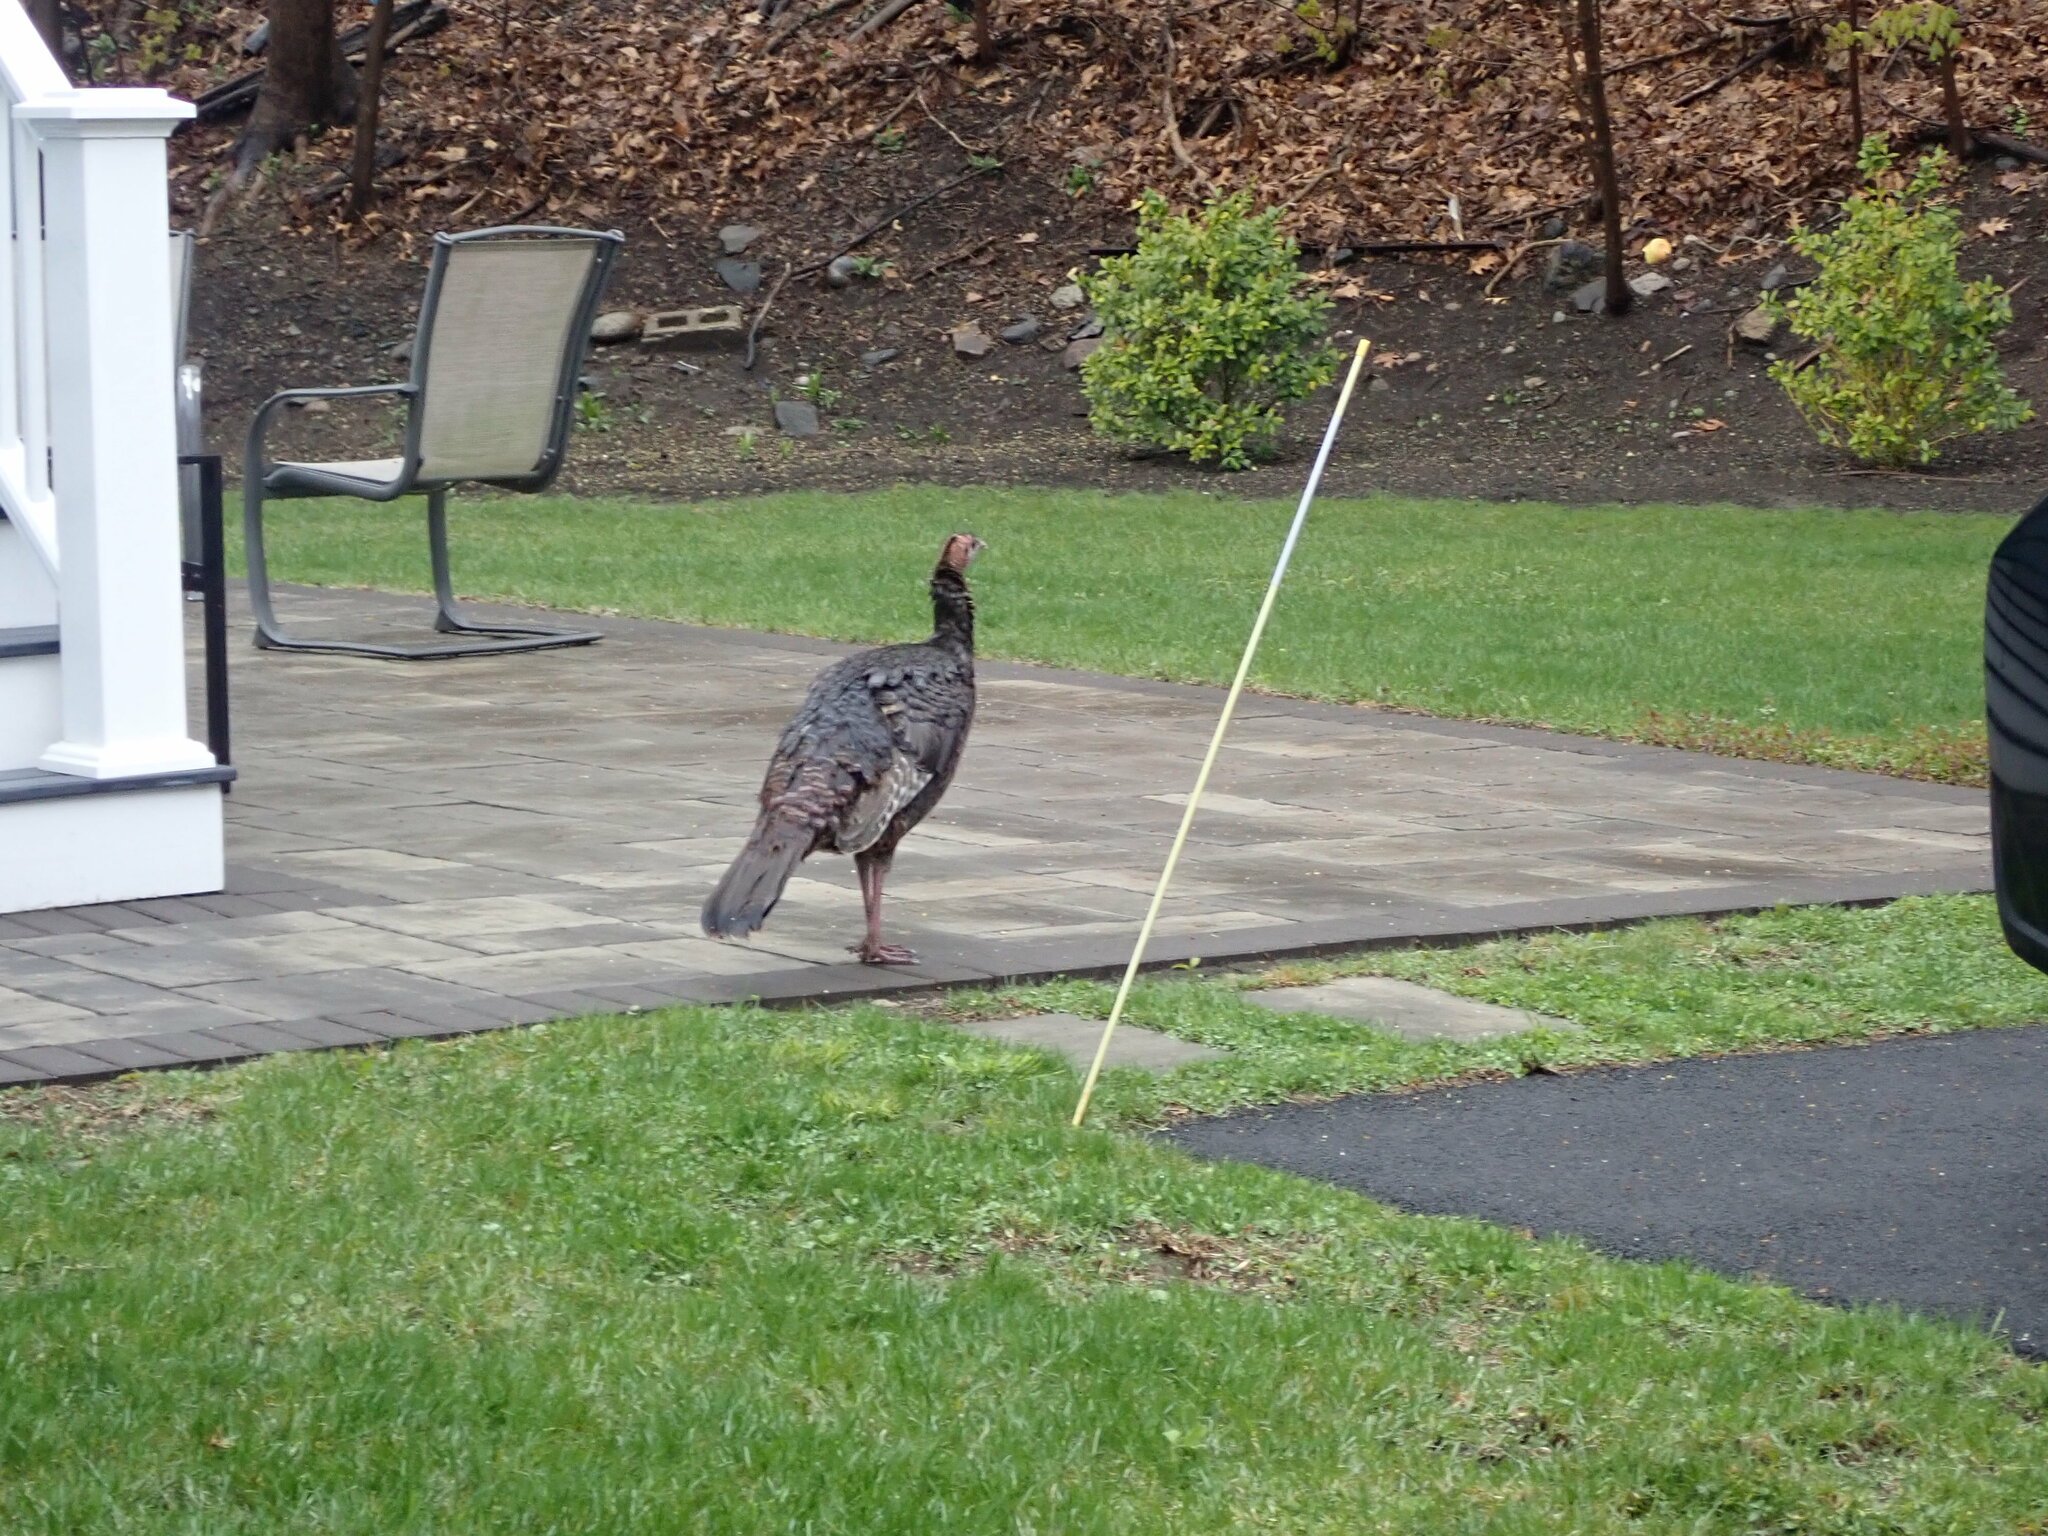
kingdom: Animalia
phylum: Chordata
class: Aves
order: Galliformes
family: Phasianidae
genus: Meleagris
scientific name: Meleagris gallopavo
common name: Wild turkey
